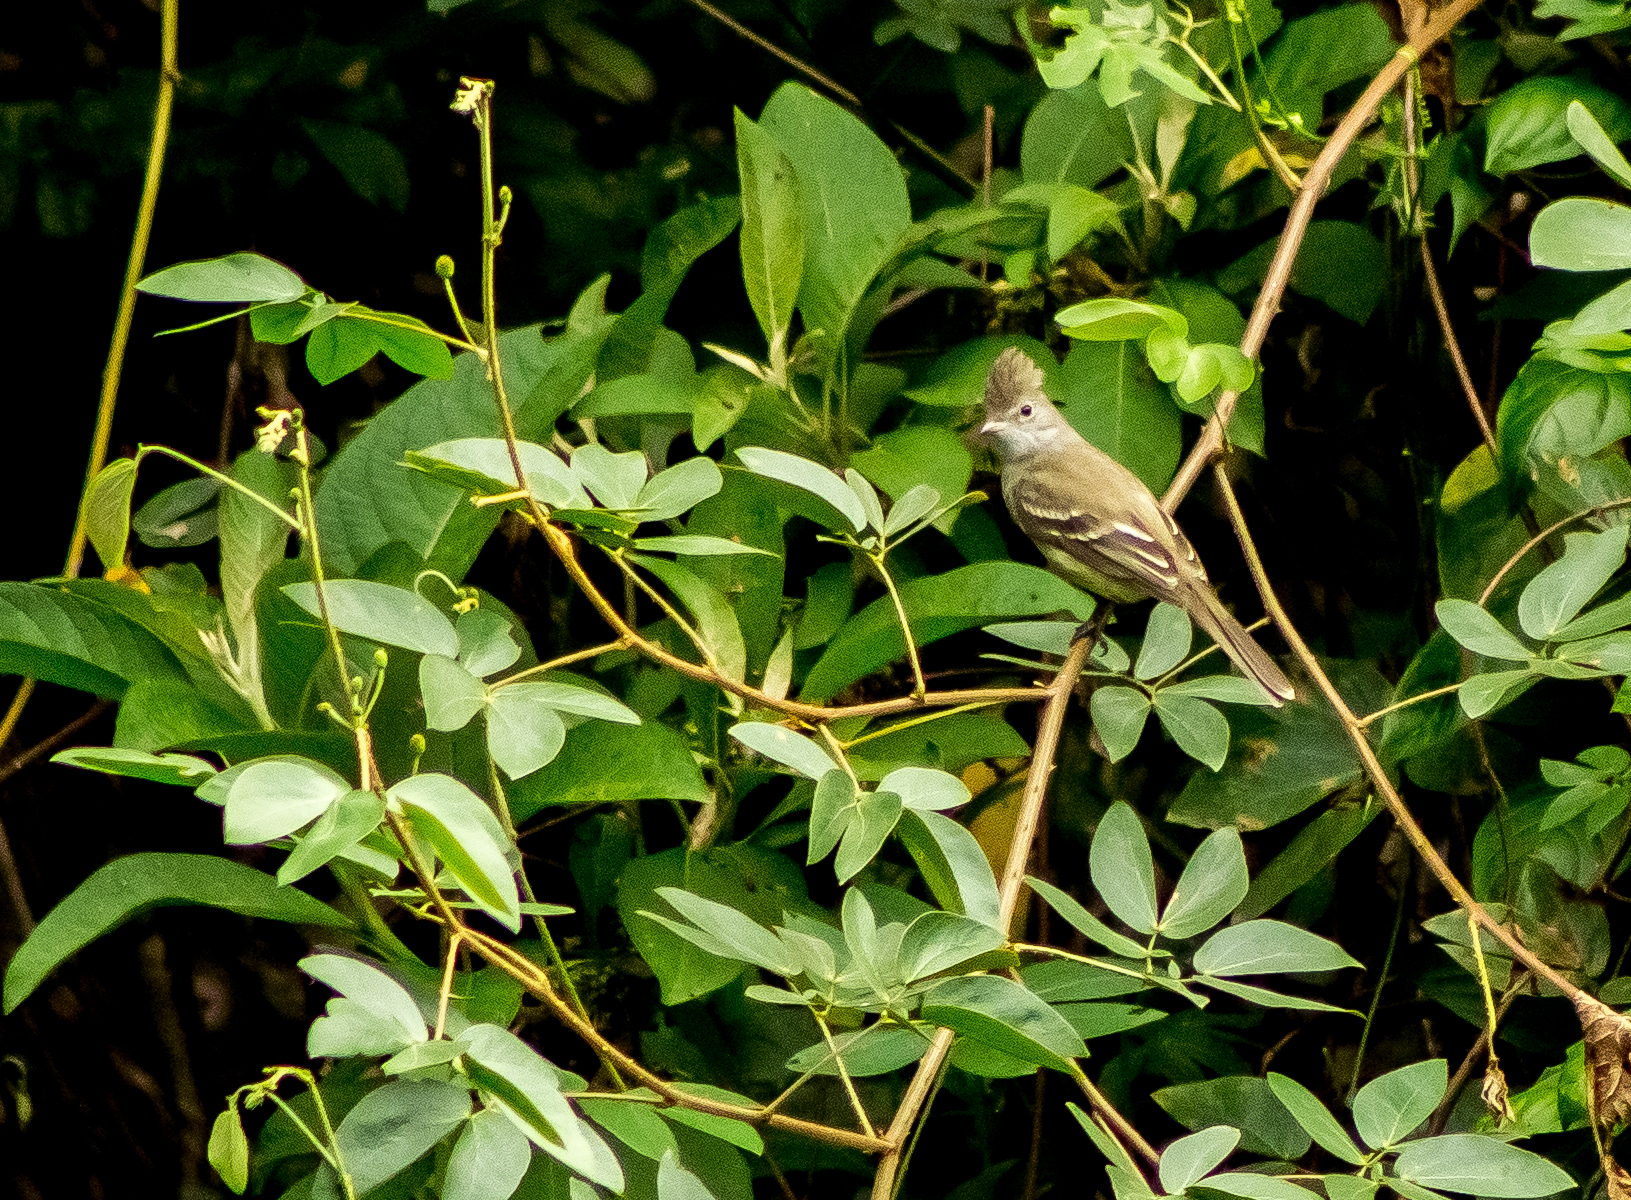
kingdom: Animalia
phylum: Chordata
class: Aves
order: Passeriformes
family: Tyrannidae
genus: Elaenia
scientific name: Elaenia flavogaster
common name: Yellow-bellied elaenia
